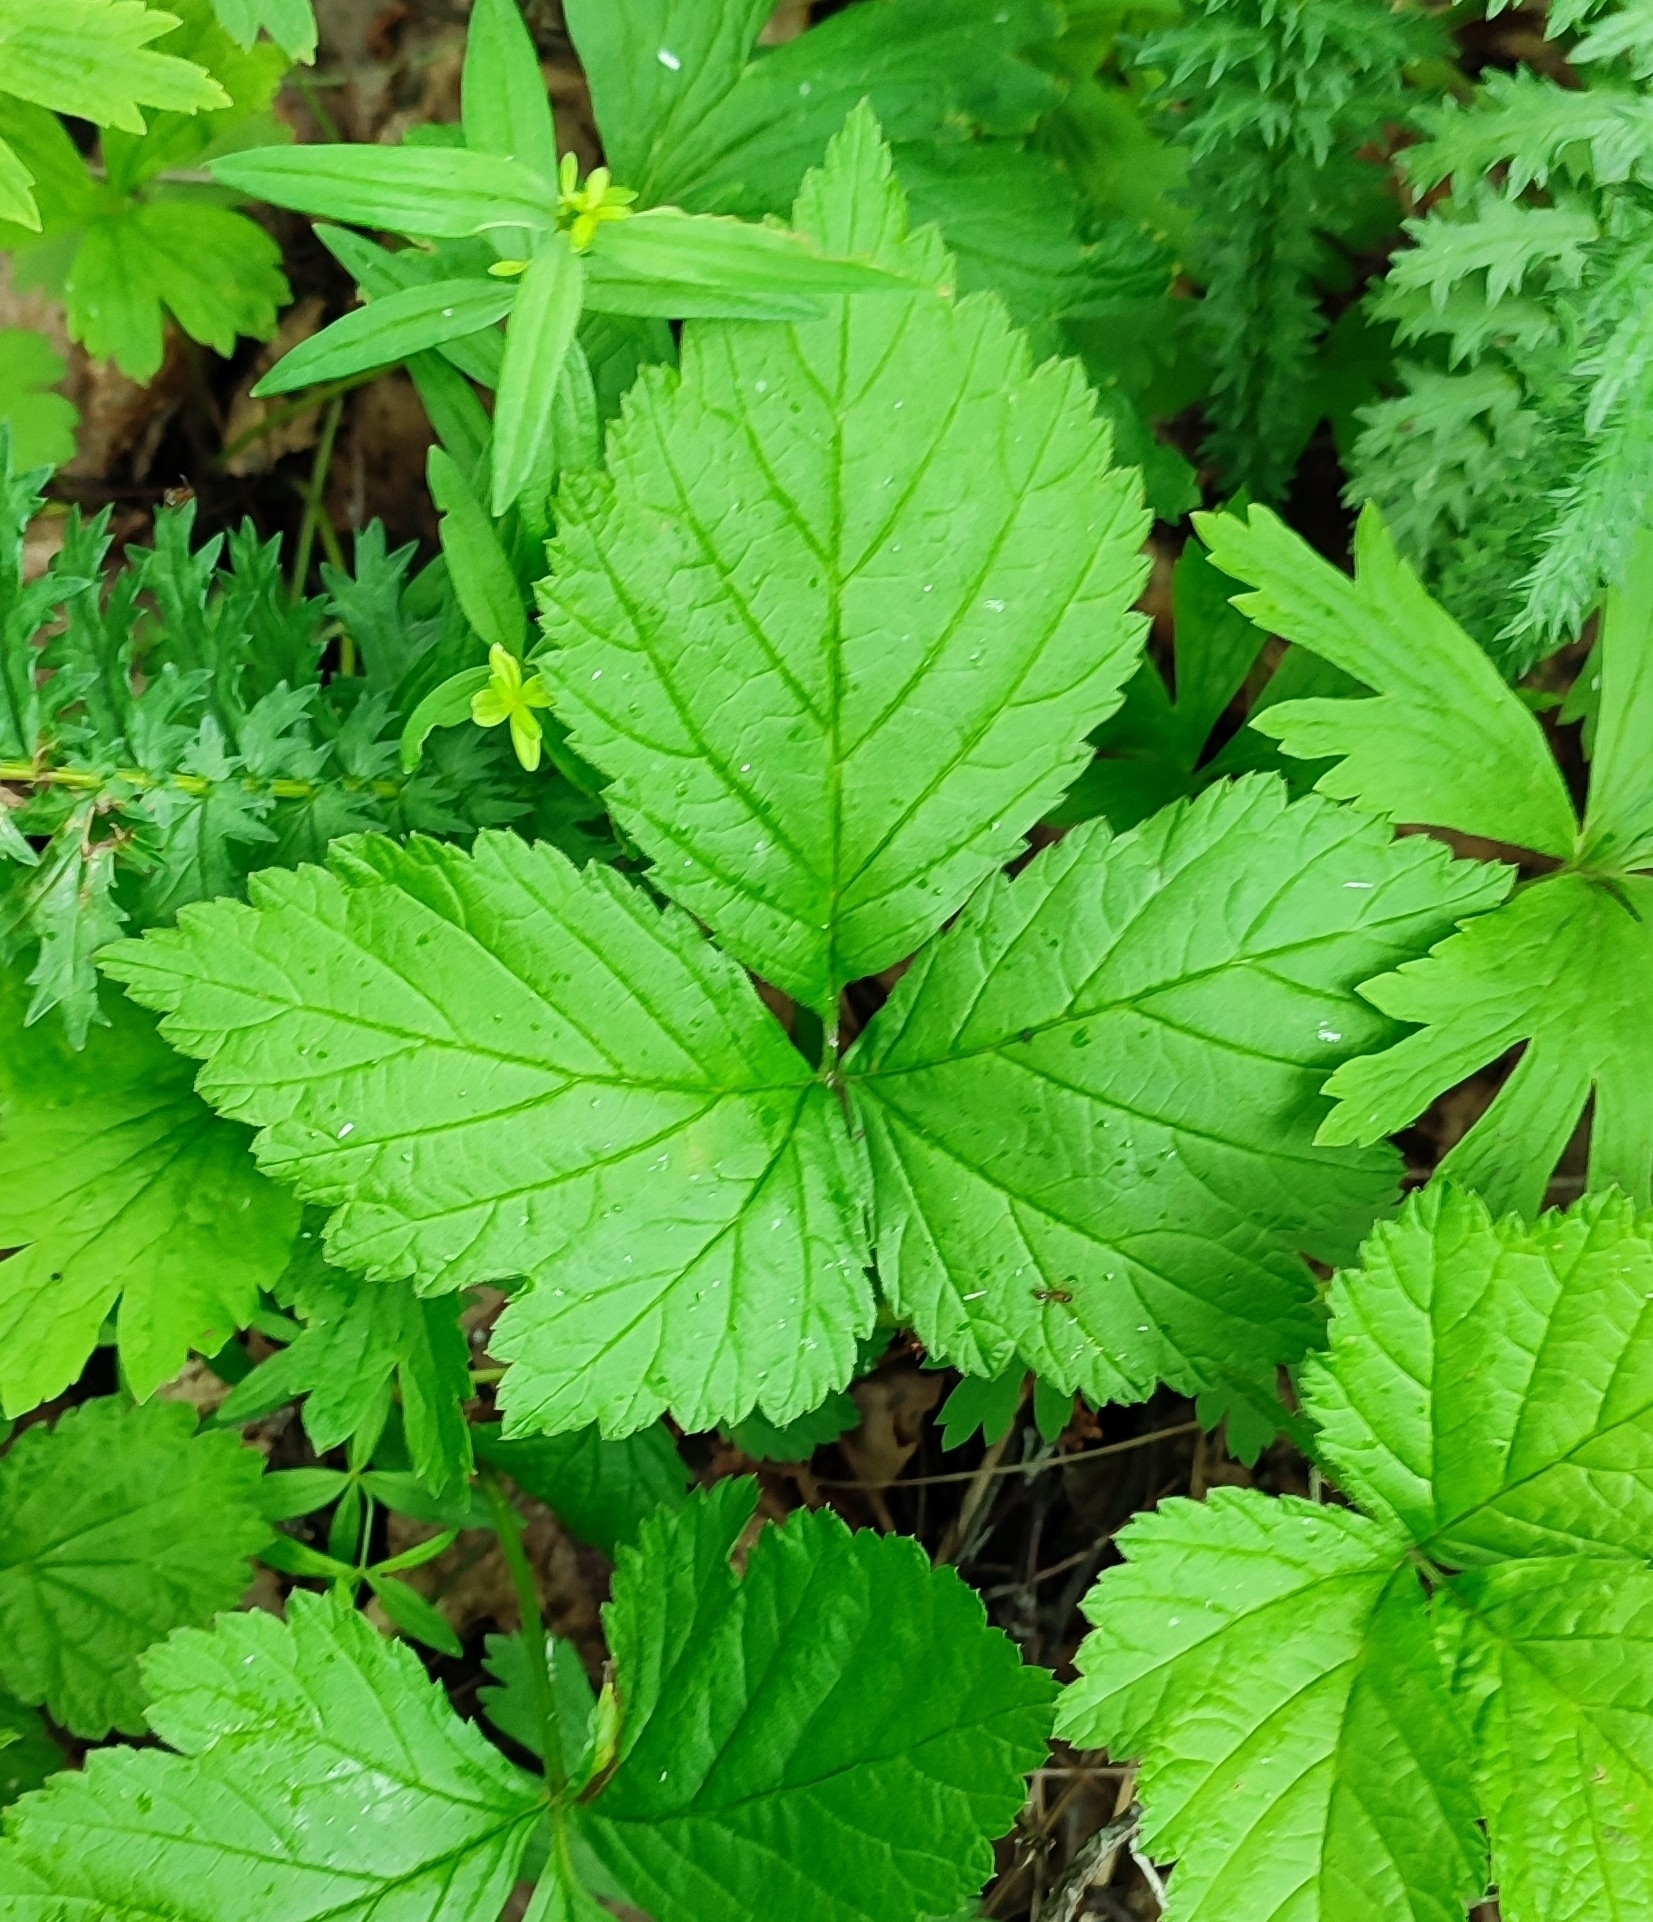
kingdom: Plantae
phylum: Tracheophyta
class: Magnoliopsida
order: Rosales
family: Rosaceae
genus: Rubus
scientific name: Rubus saxatilis
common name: Stone bramble
